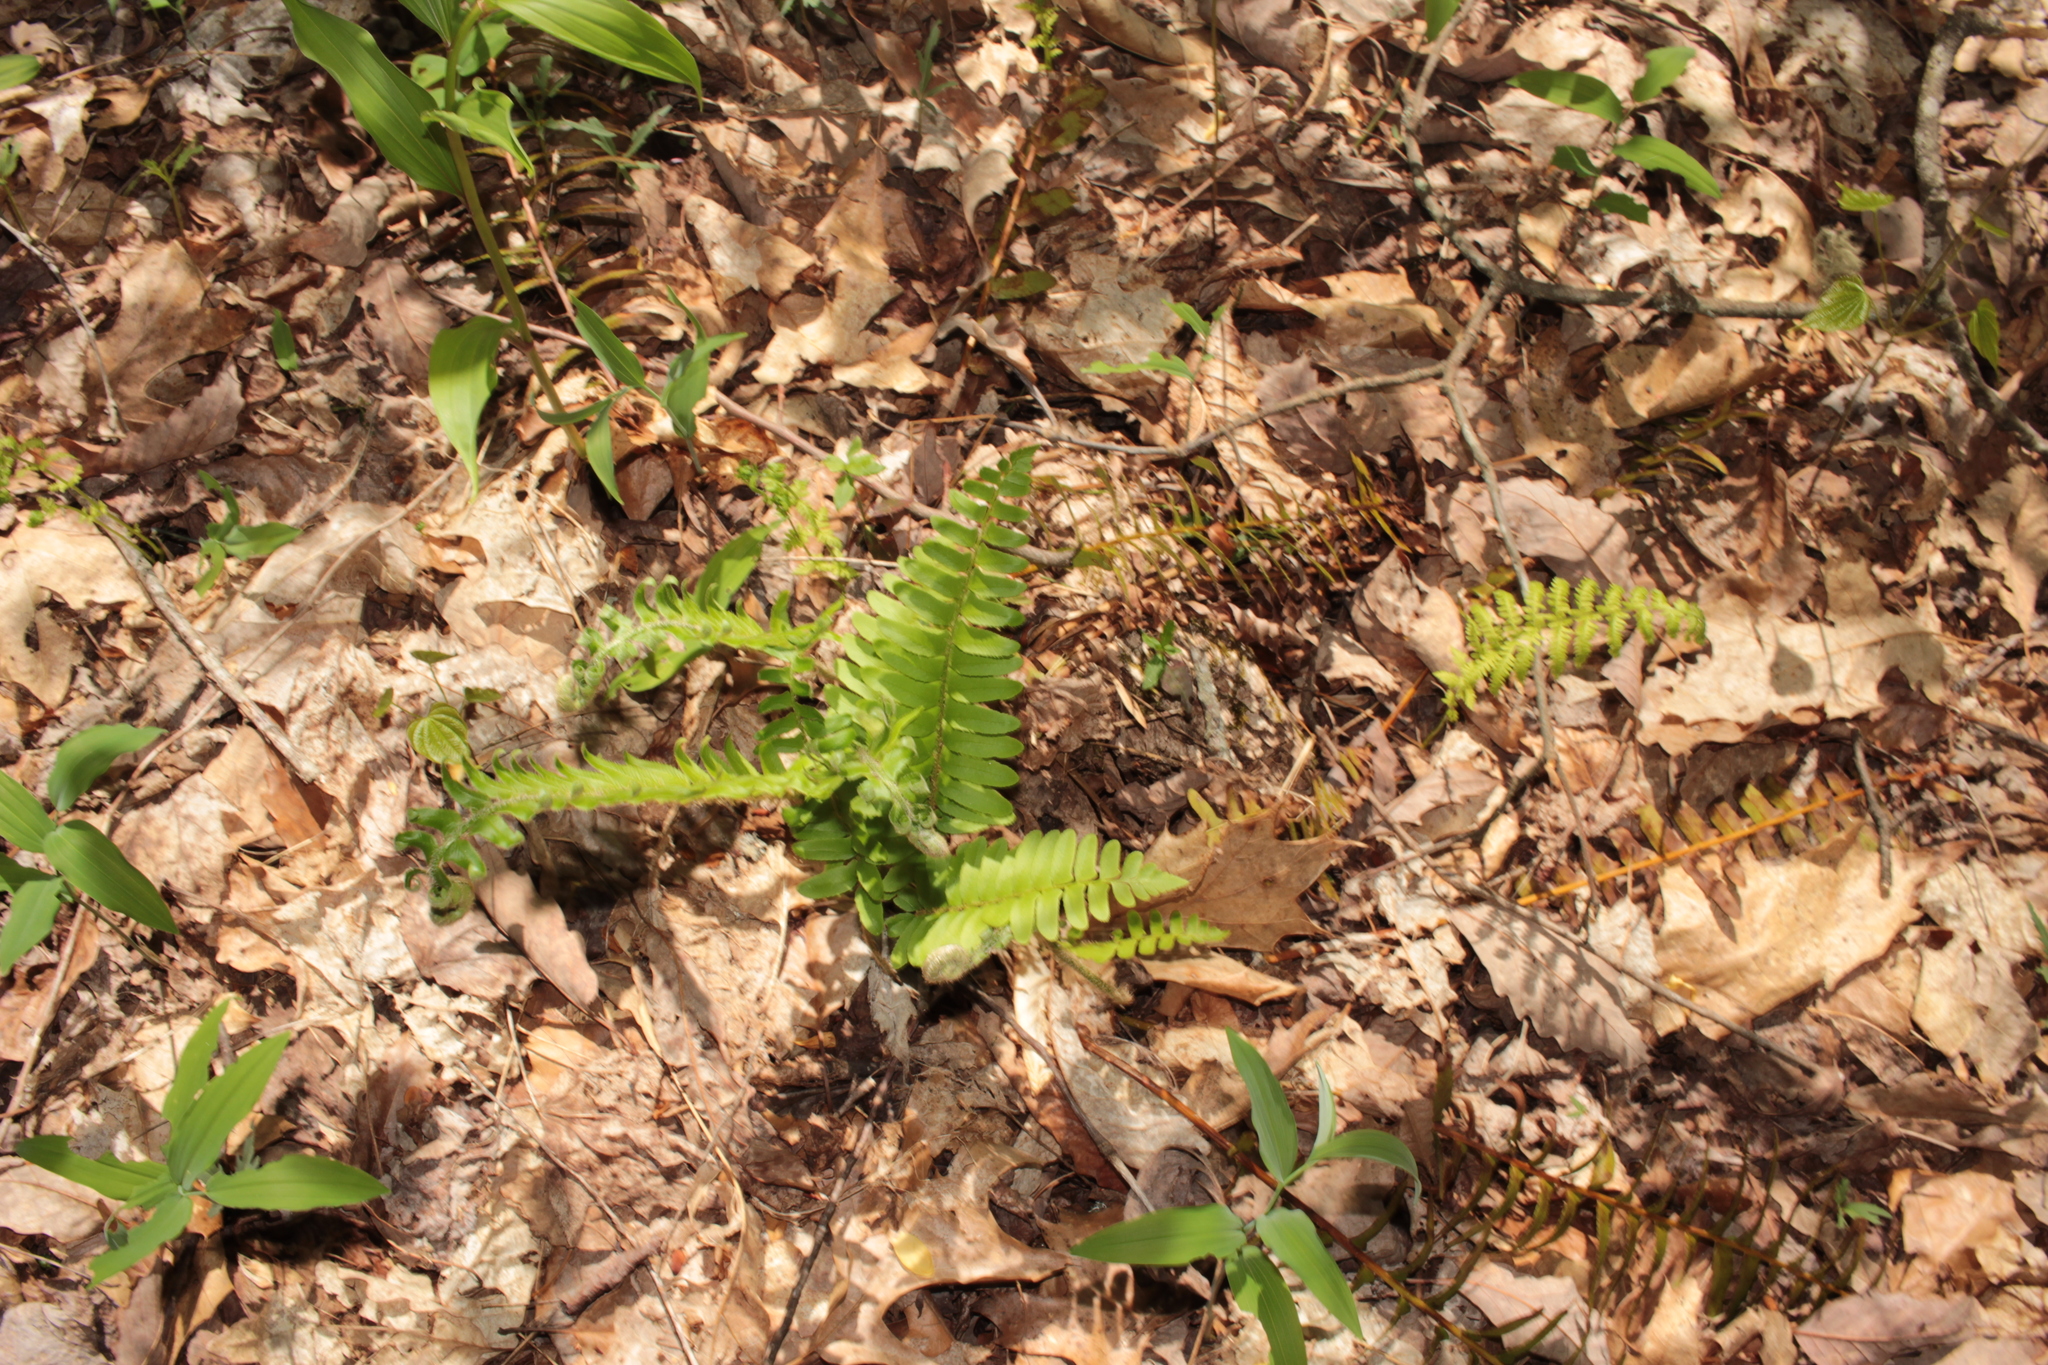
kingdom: Plantae
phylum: Tracheophyta
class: Polypodiopsida
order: Polypodiales
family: Dryopteridaceae
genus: Polystichum
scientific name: Polystichum acrostichoides
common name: Christmas fern
